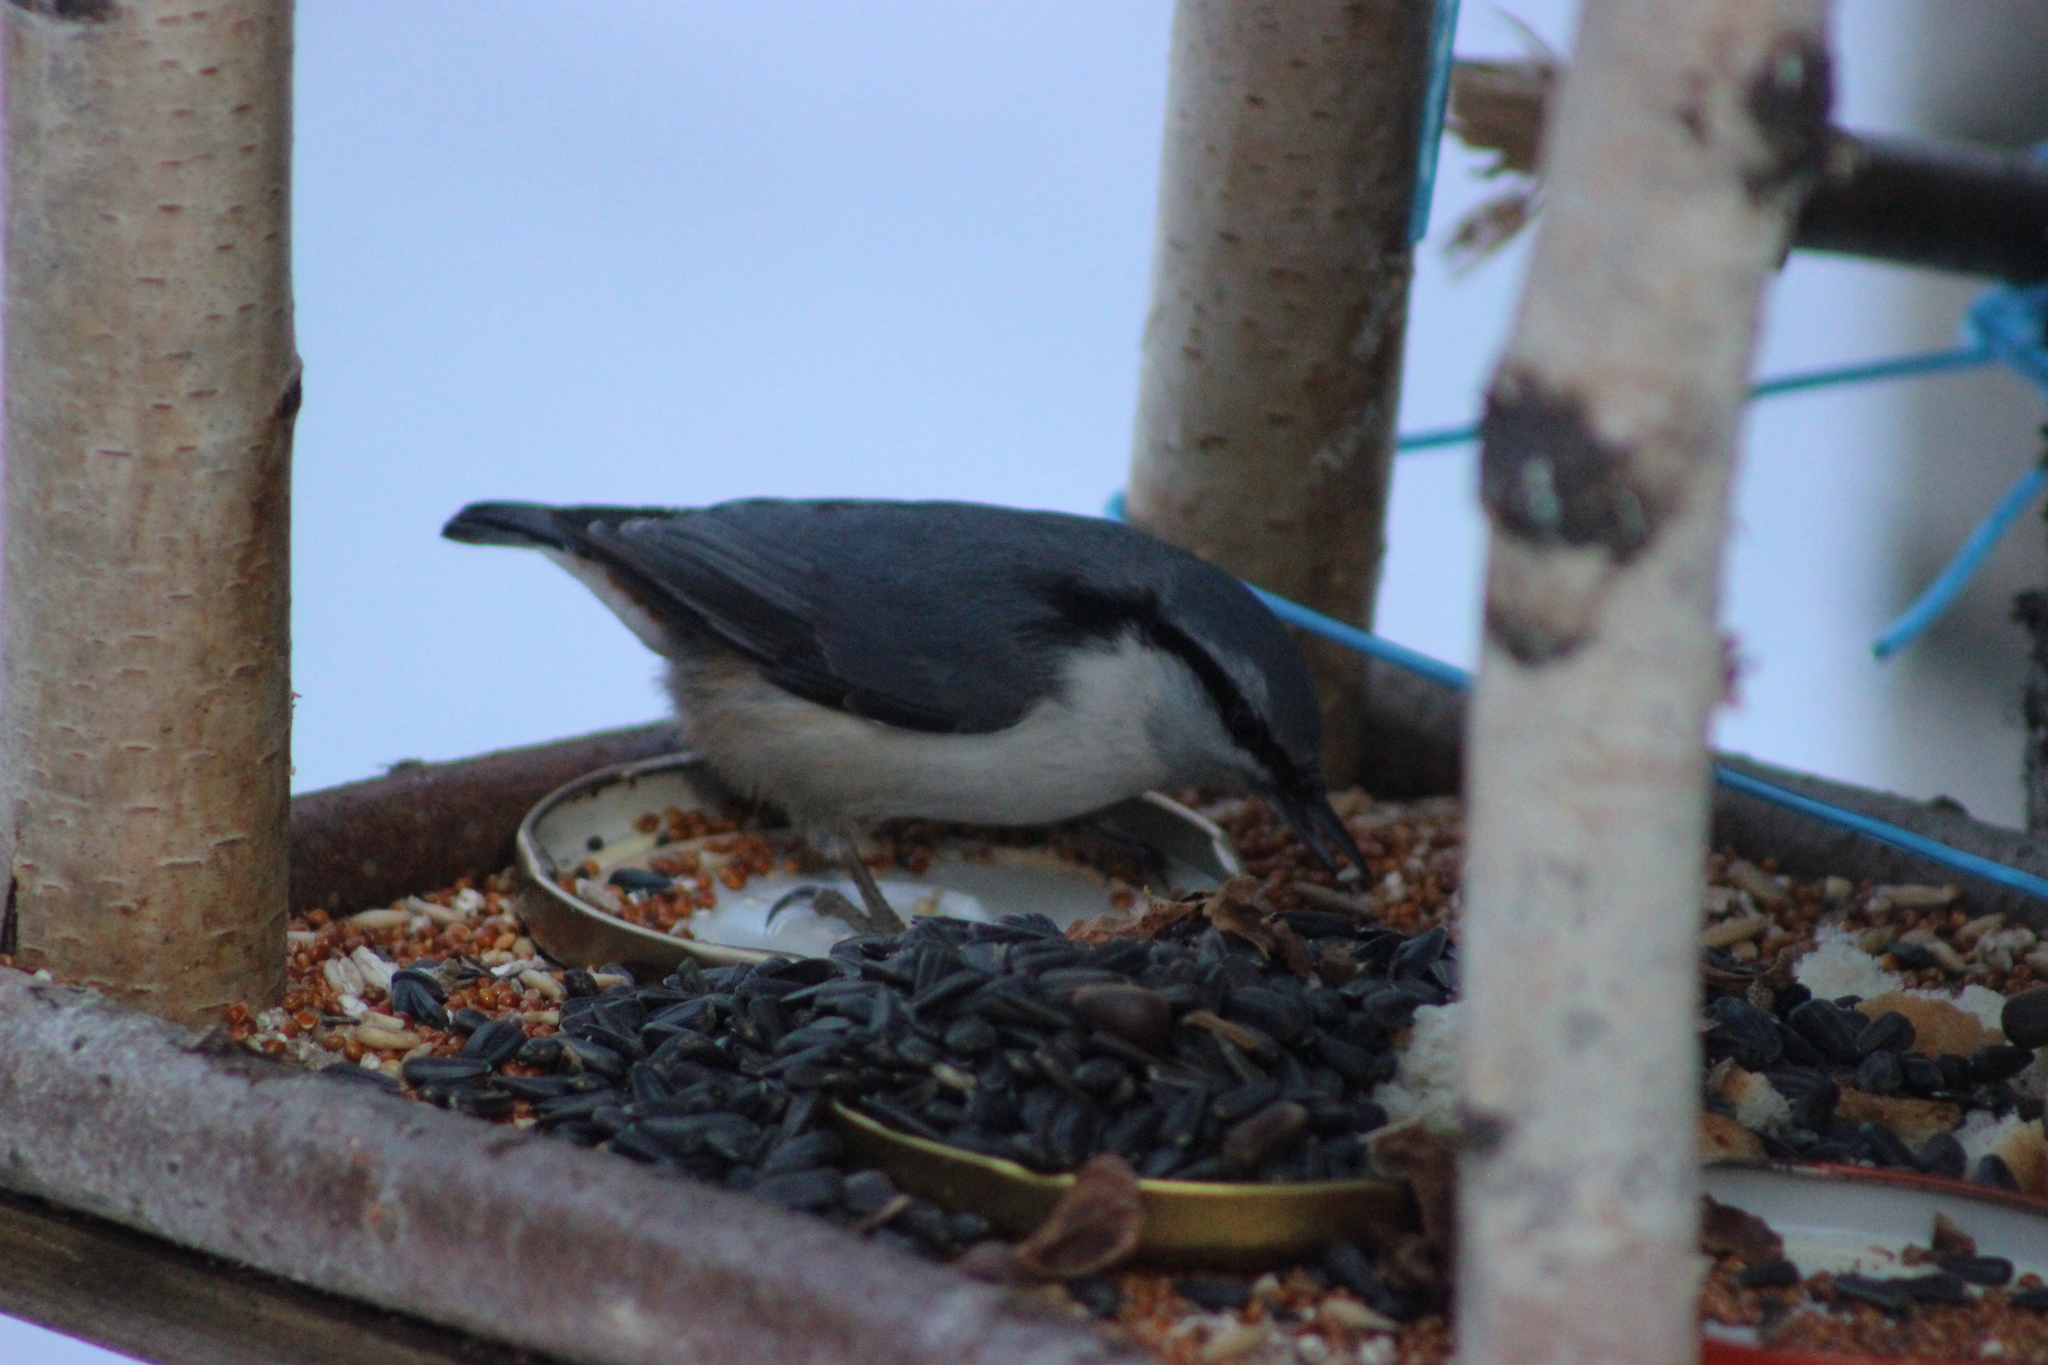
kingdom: Animalia
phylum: Chordata
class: Aves
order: Passeriformes
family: Sittidae
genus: Sitta
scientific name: Sitta europaea
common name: Eurasian nuthatch
